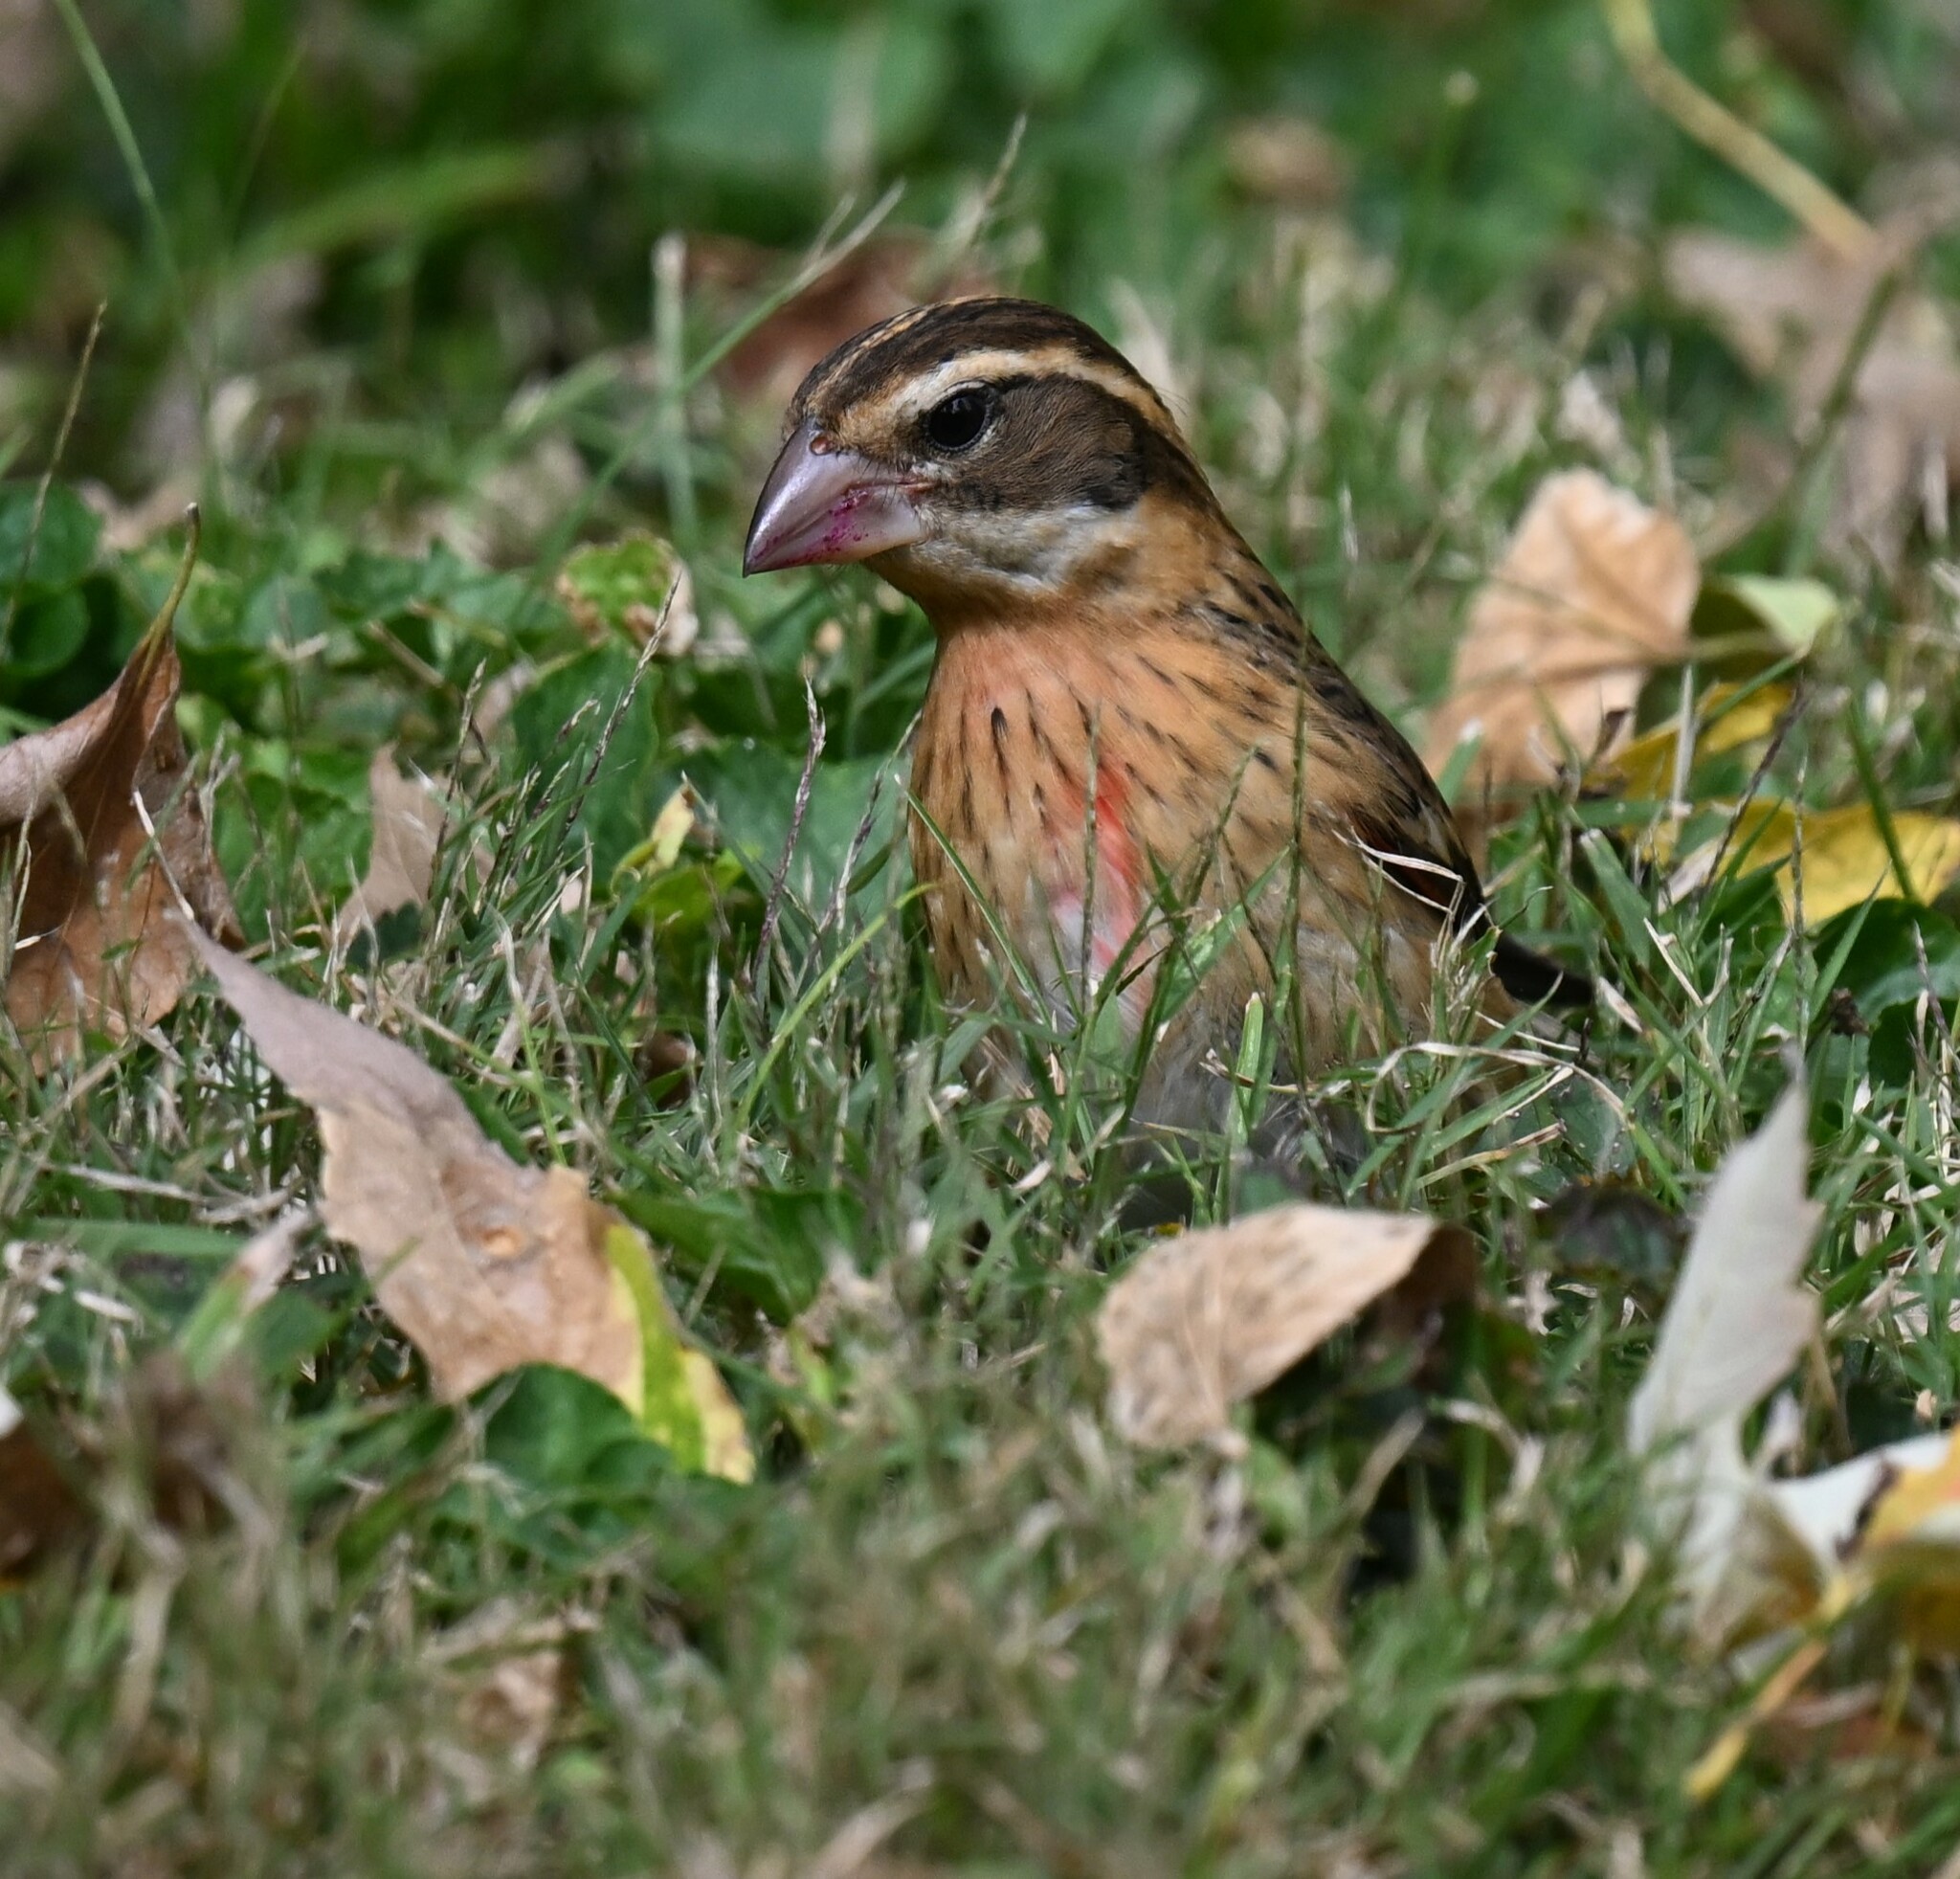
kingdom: Animalia
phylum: Chordata
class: Aves
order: Passeriformes
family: Cardinalidae
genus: Pheucticus
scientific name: Pheucticus ludovicianus
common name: Rose-breasted grosbeak
